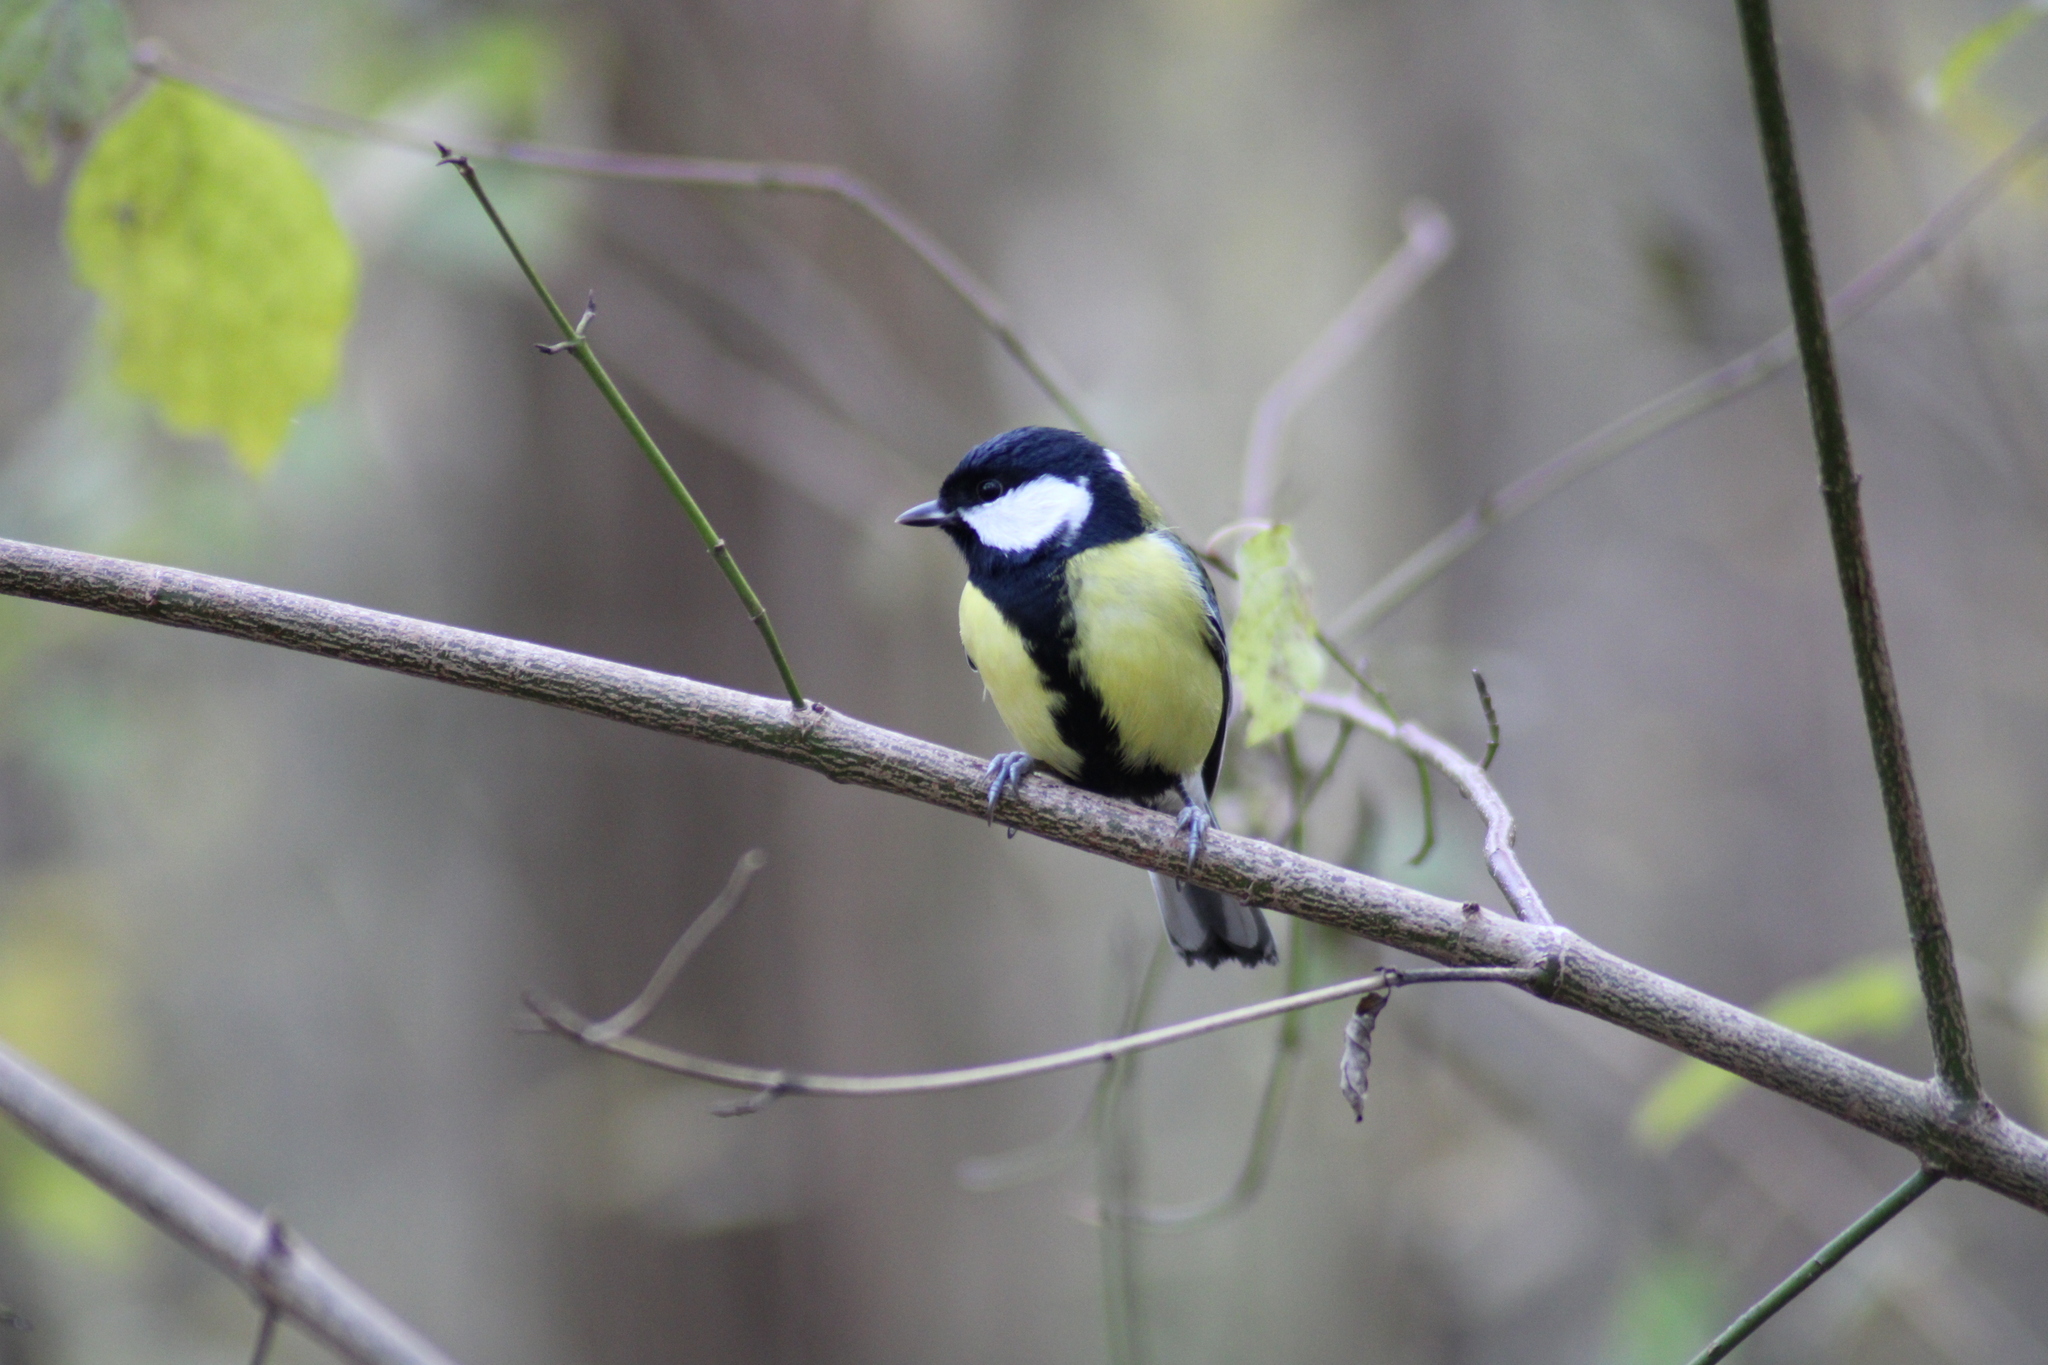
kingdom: Animalia
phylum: Chordata
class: Aves
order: Passeriformes
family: Paridae
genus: Parus
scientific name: Parus major
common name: Great tit
